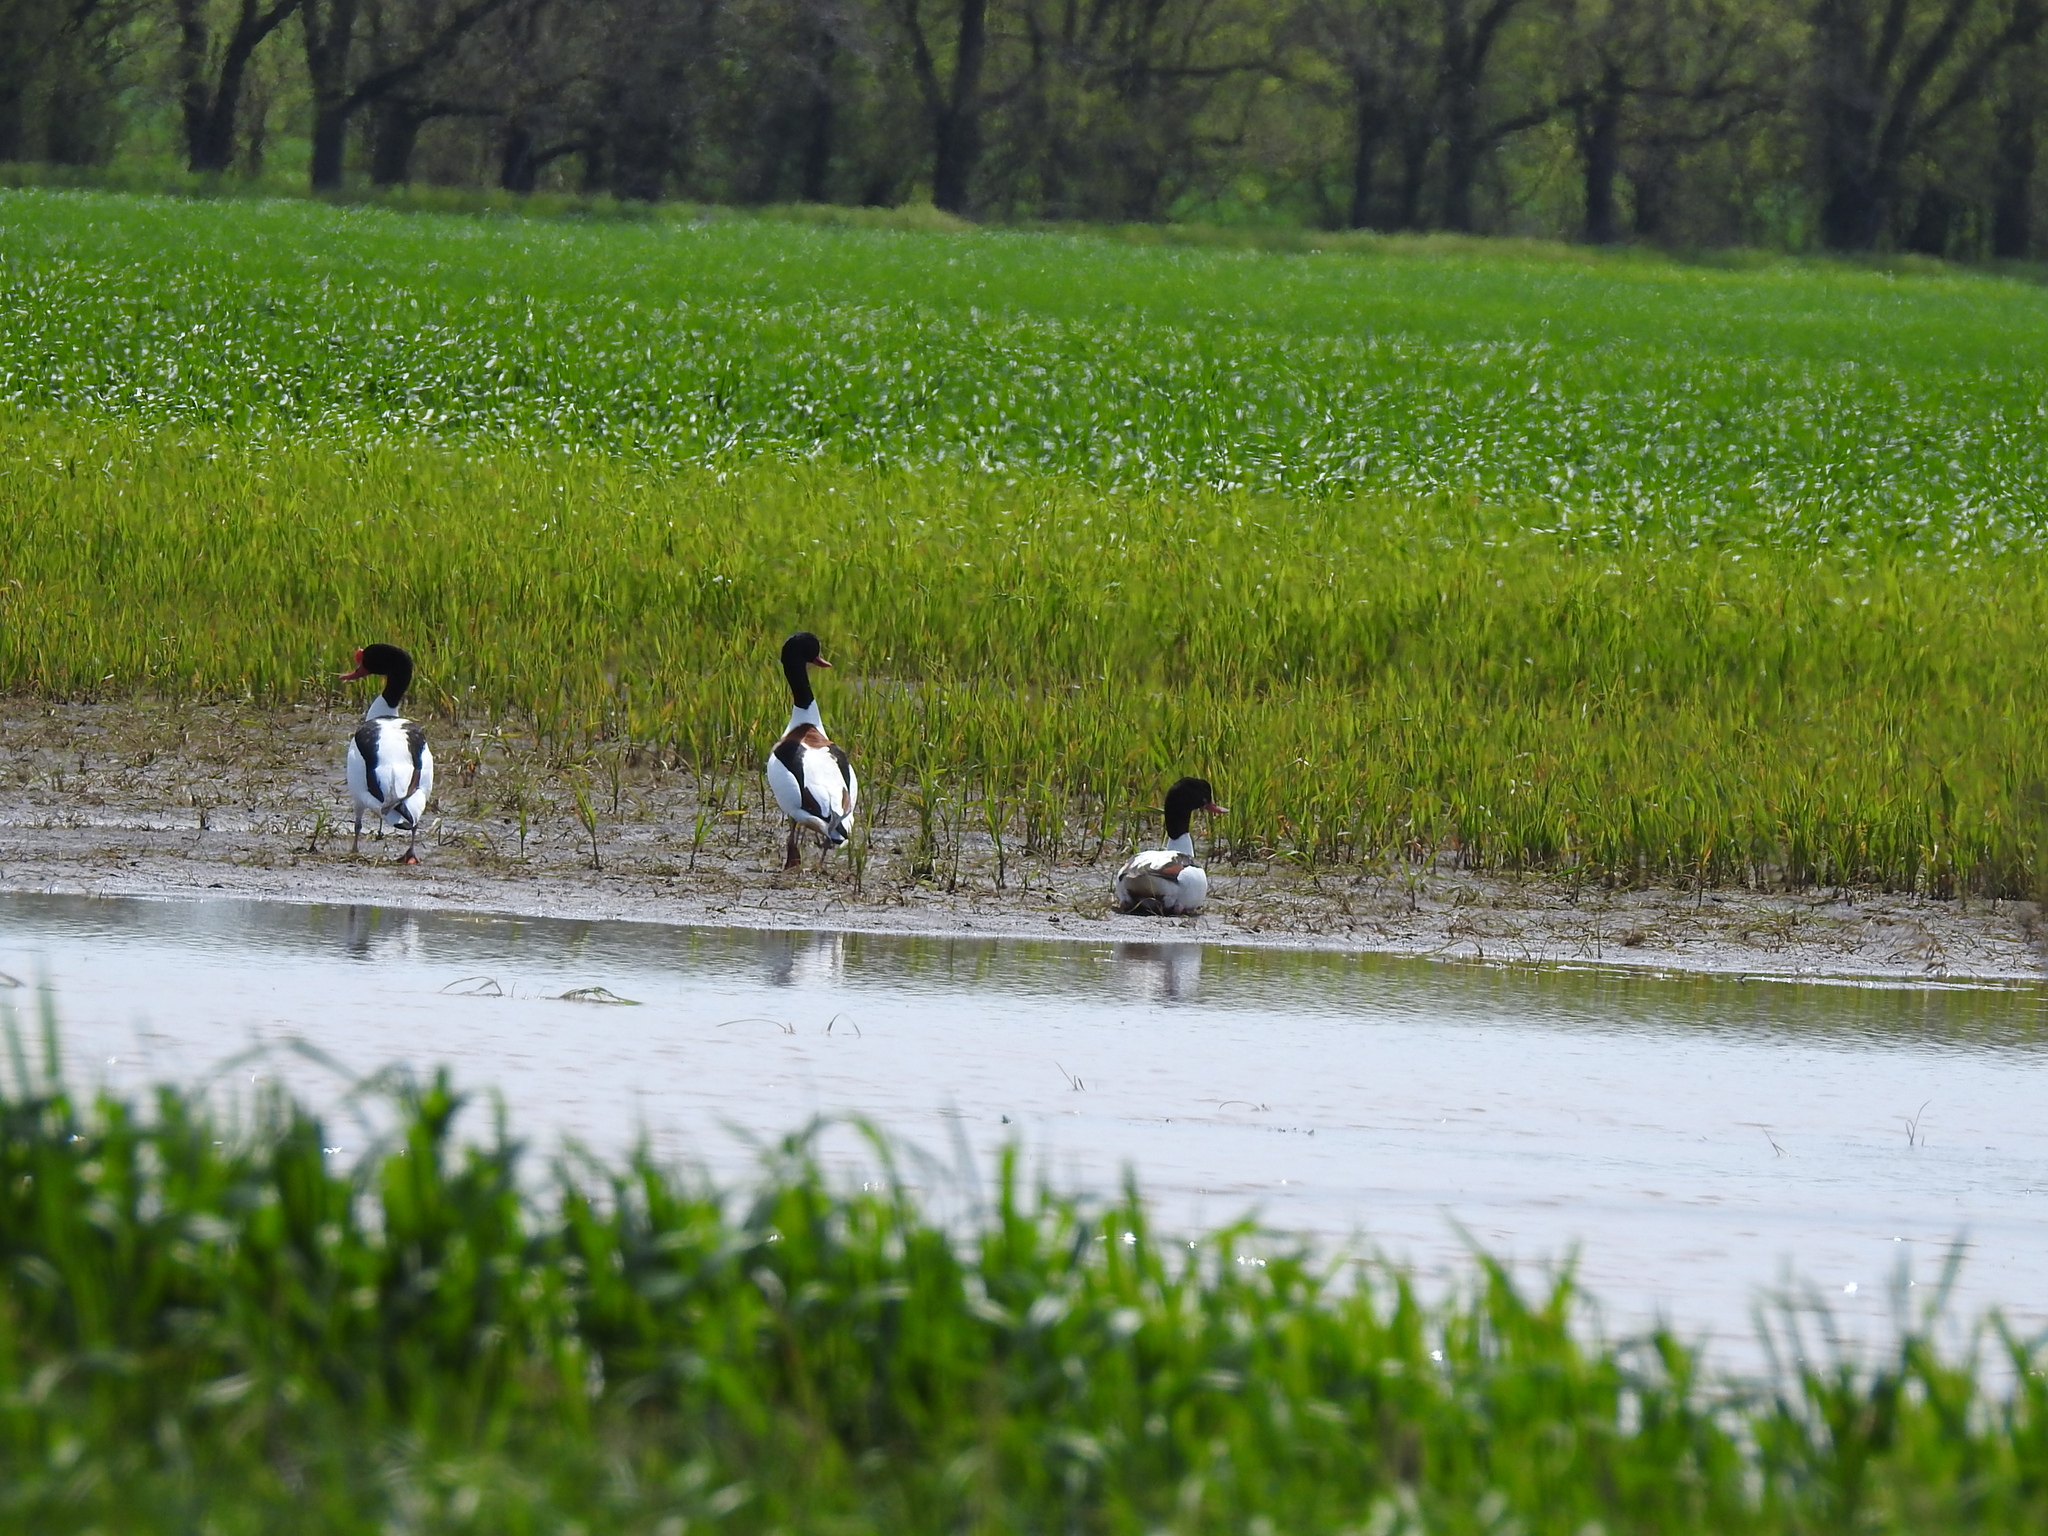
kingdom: Animalia
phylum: Chordata
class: Aves
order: Anseriformes
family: Anatidae
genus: Tadorna
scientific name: Tadorna tadorna
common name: Common shelduck
